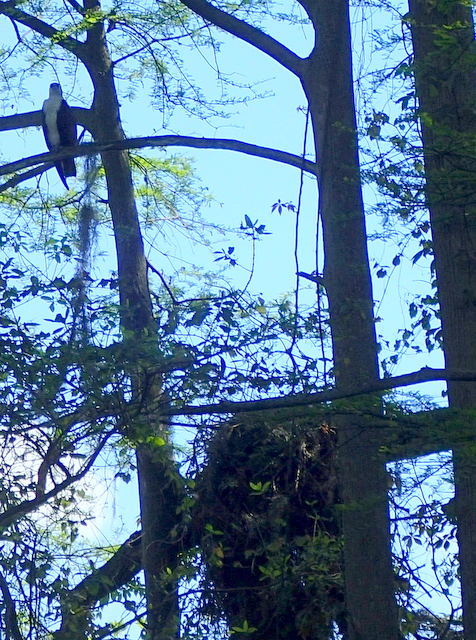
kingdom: Animalia
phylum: Chordata
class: Aves
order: Accipitriformes
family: Pandionidae
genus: Pandion
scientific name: Pandion haliaetus
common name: Osprey
